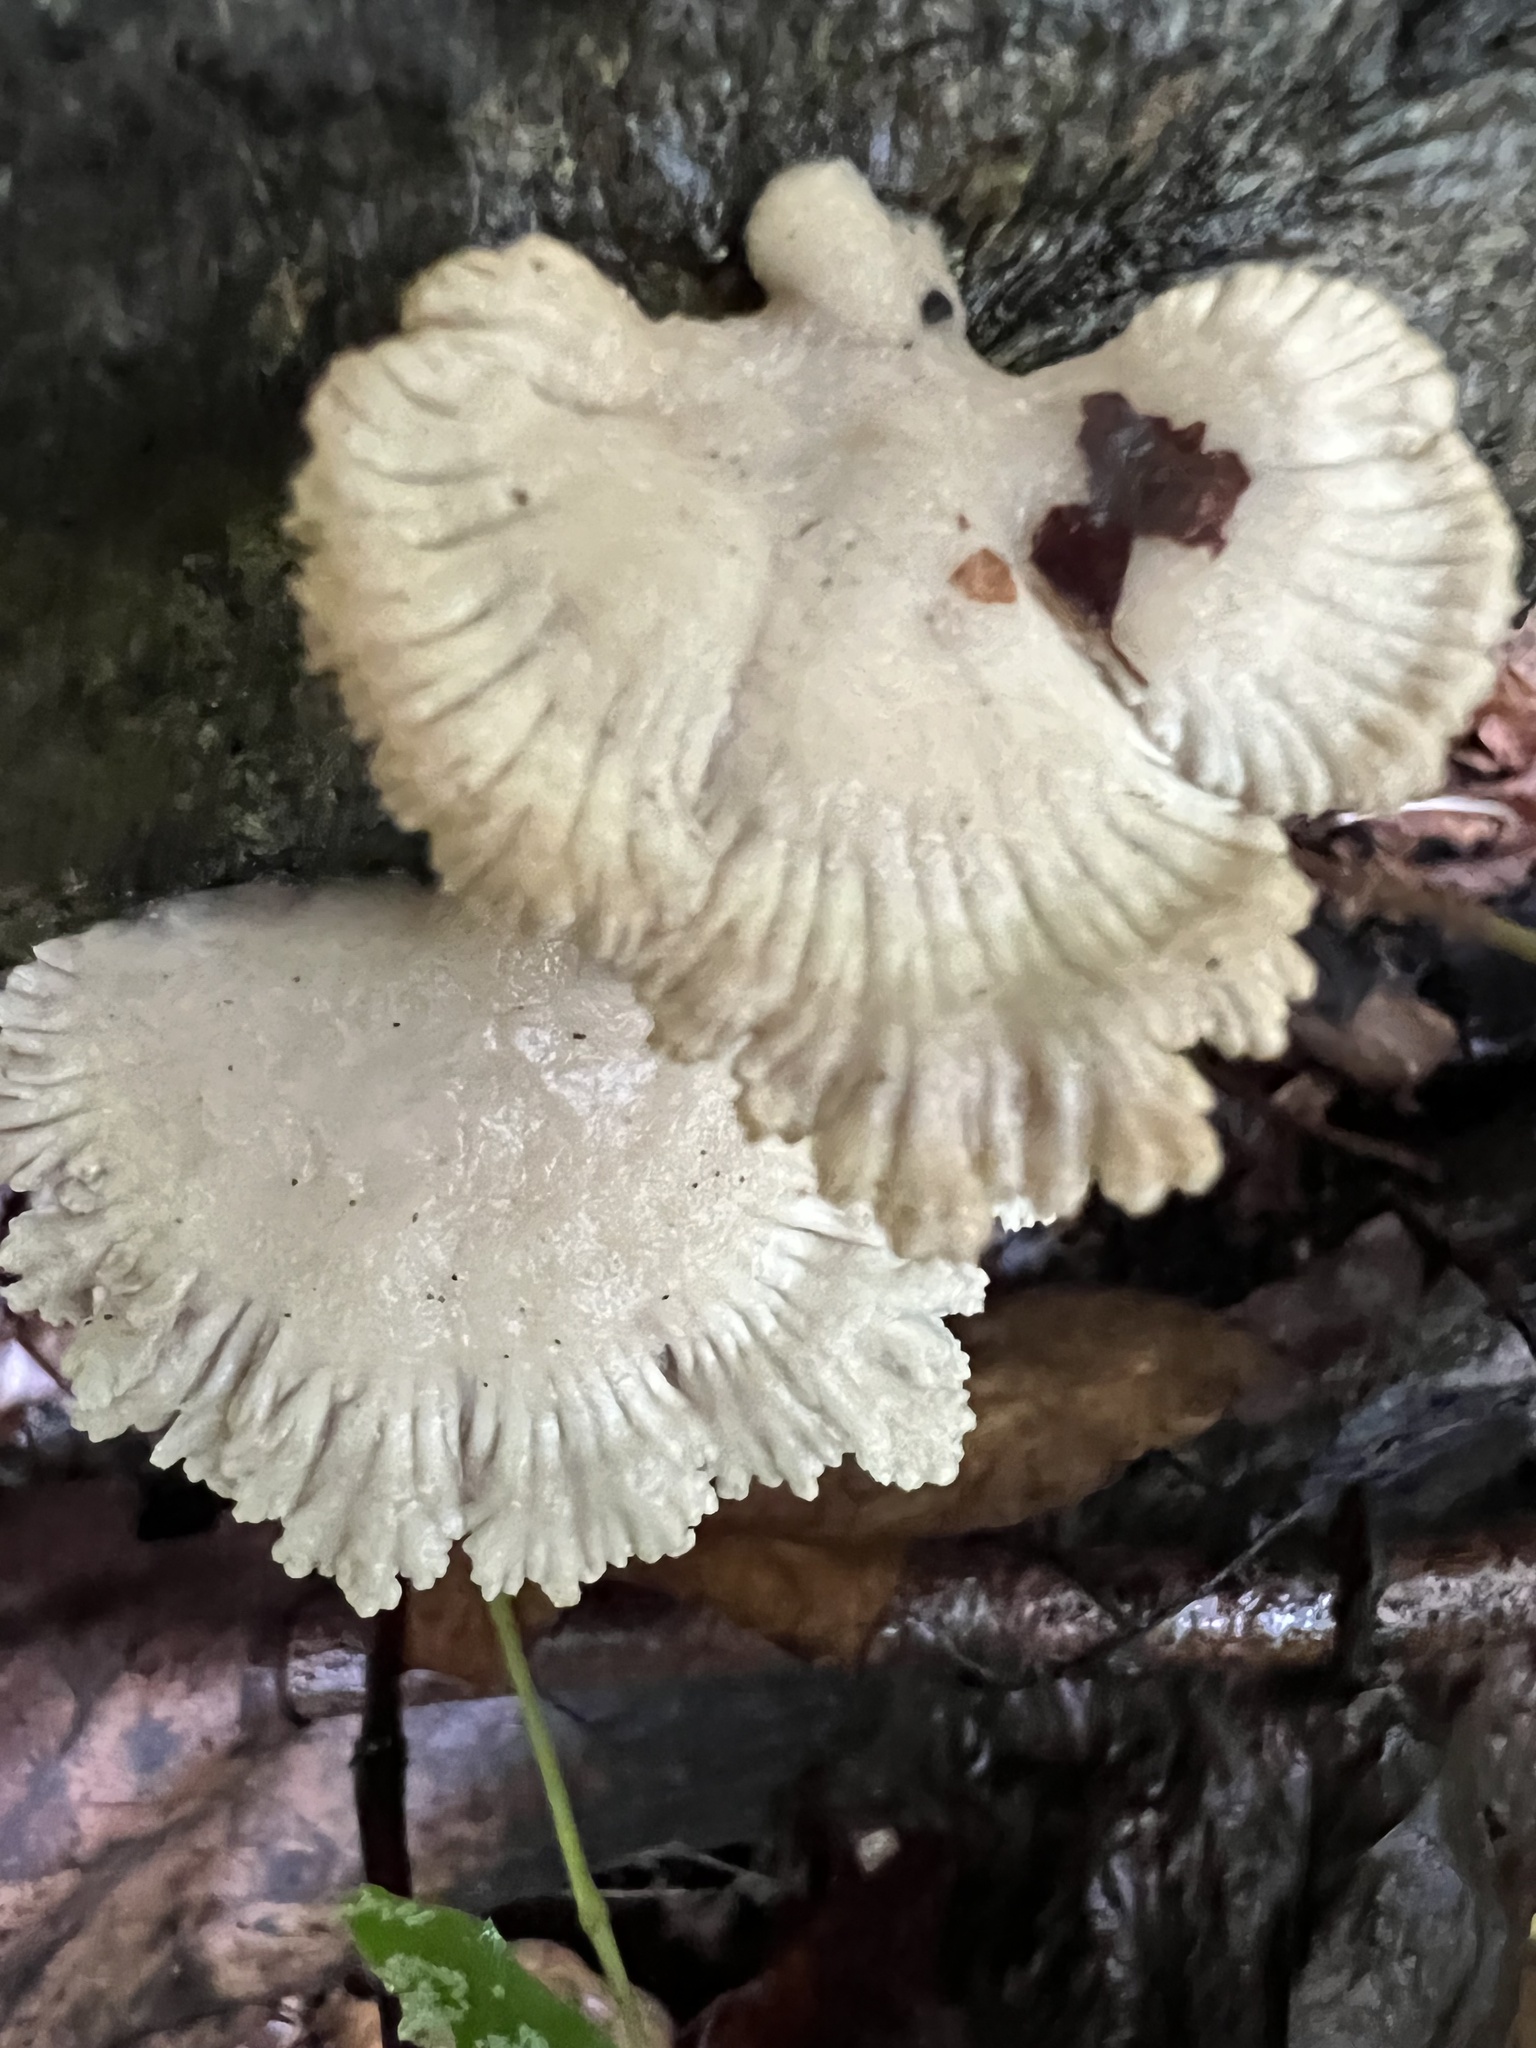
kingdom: Fungi
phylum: Basidiomycota
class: Agaricomycetes
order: Agaricales
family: Schizophyllaceae
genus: Schizophyllum
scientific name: Schizophyllum commune
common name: Common porecrust
